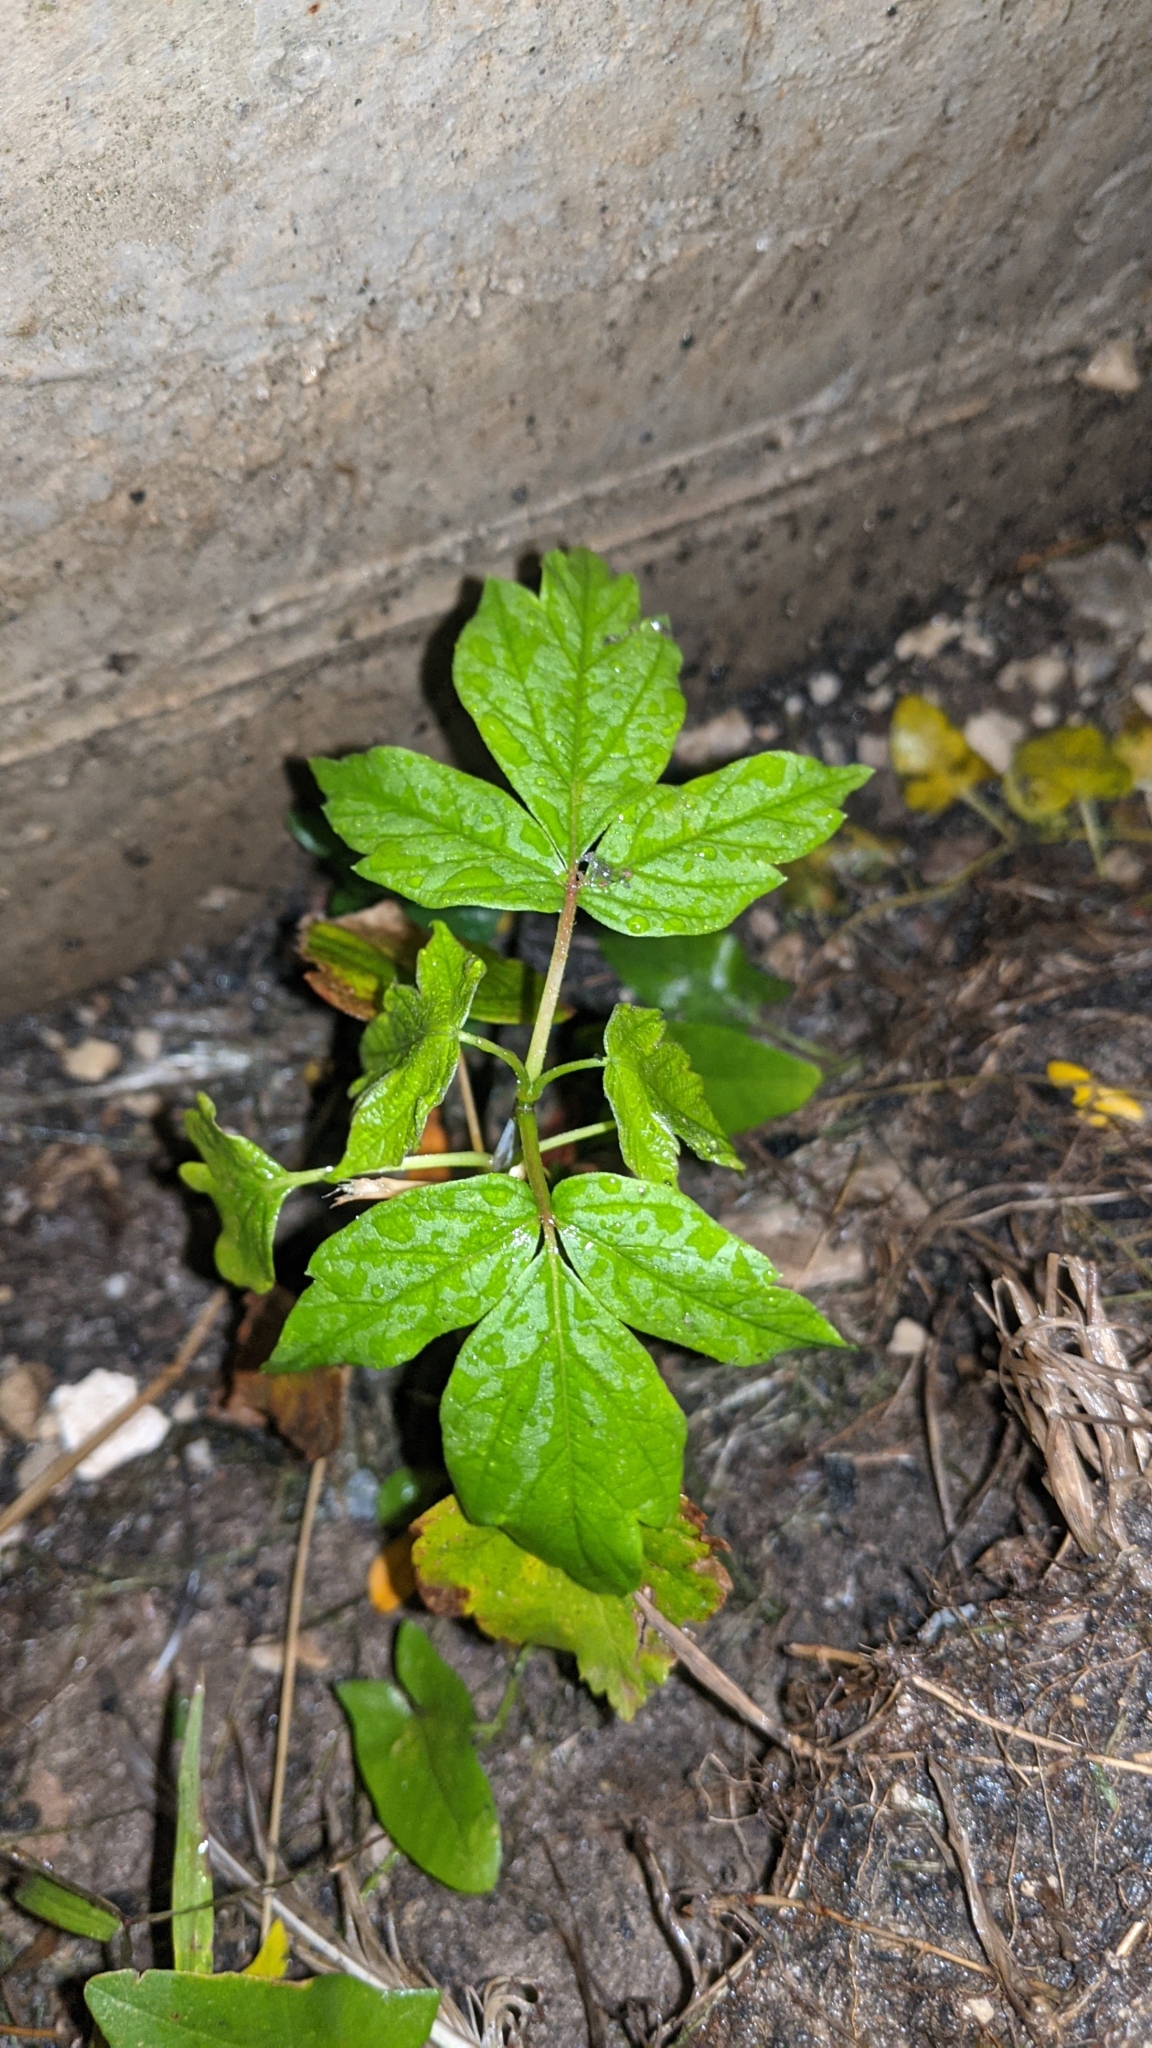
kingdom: Plantae
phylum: Tracheophyta
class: Magnoliopsida
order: Sapindales
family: Sapindaceae
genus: Acer
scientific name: Acer negundo
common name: Ashleaf maple
